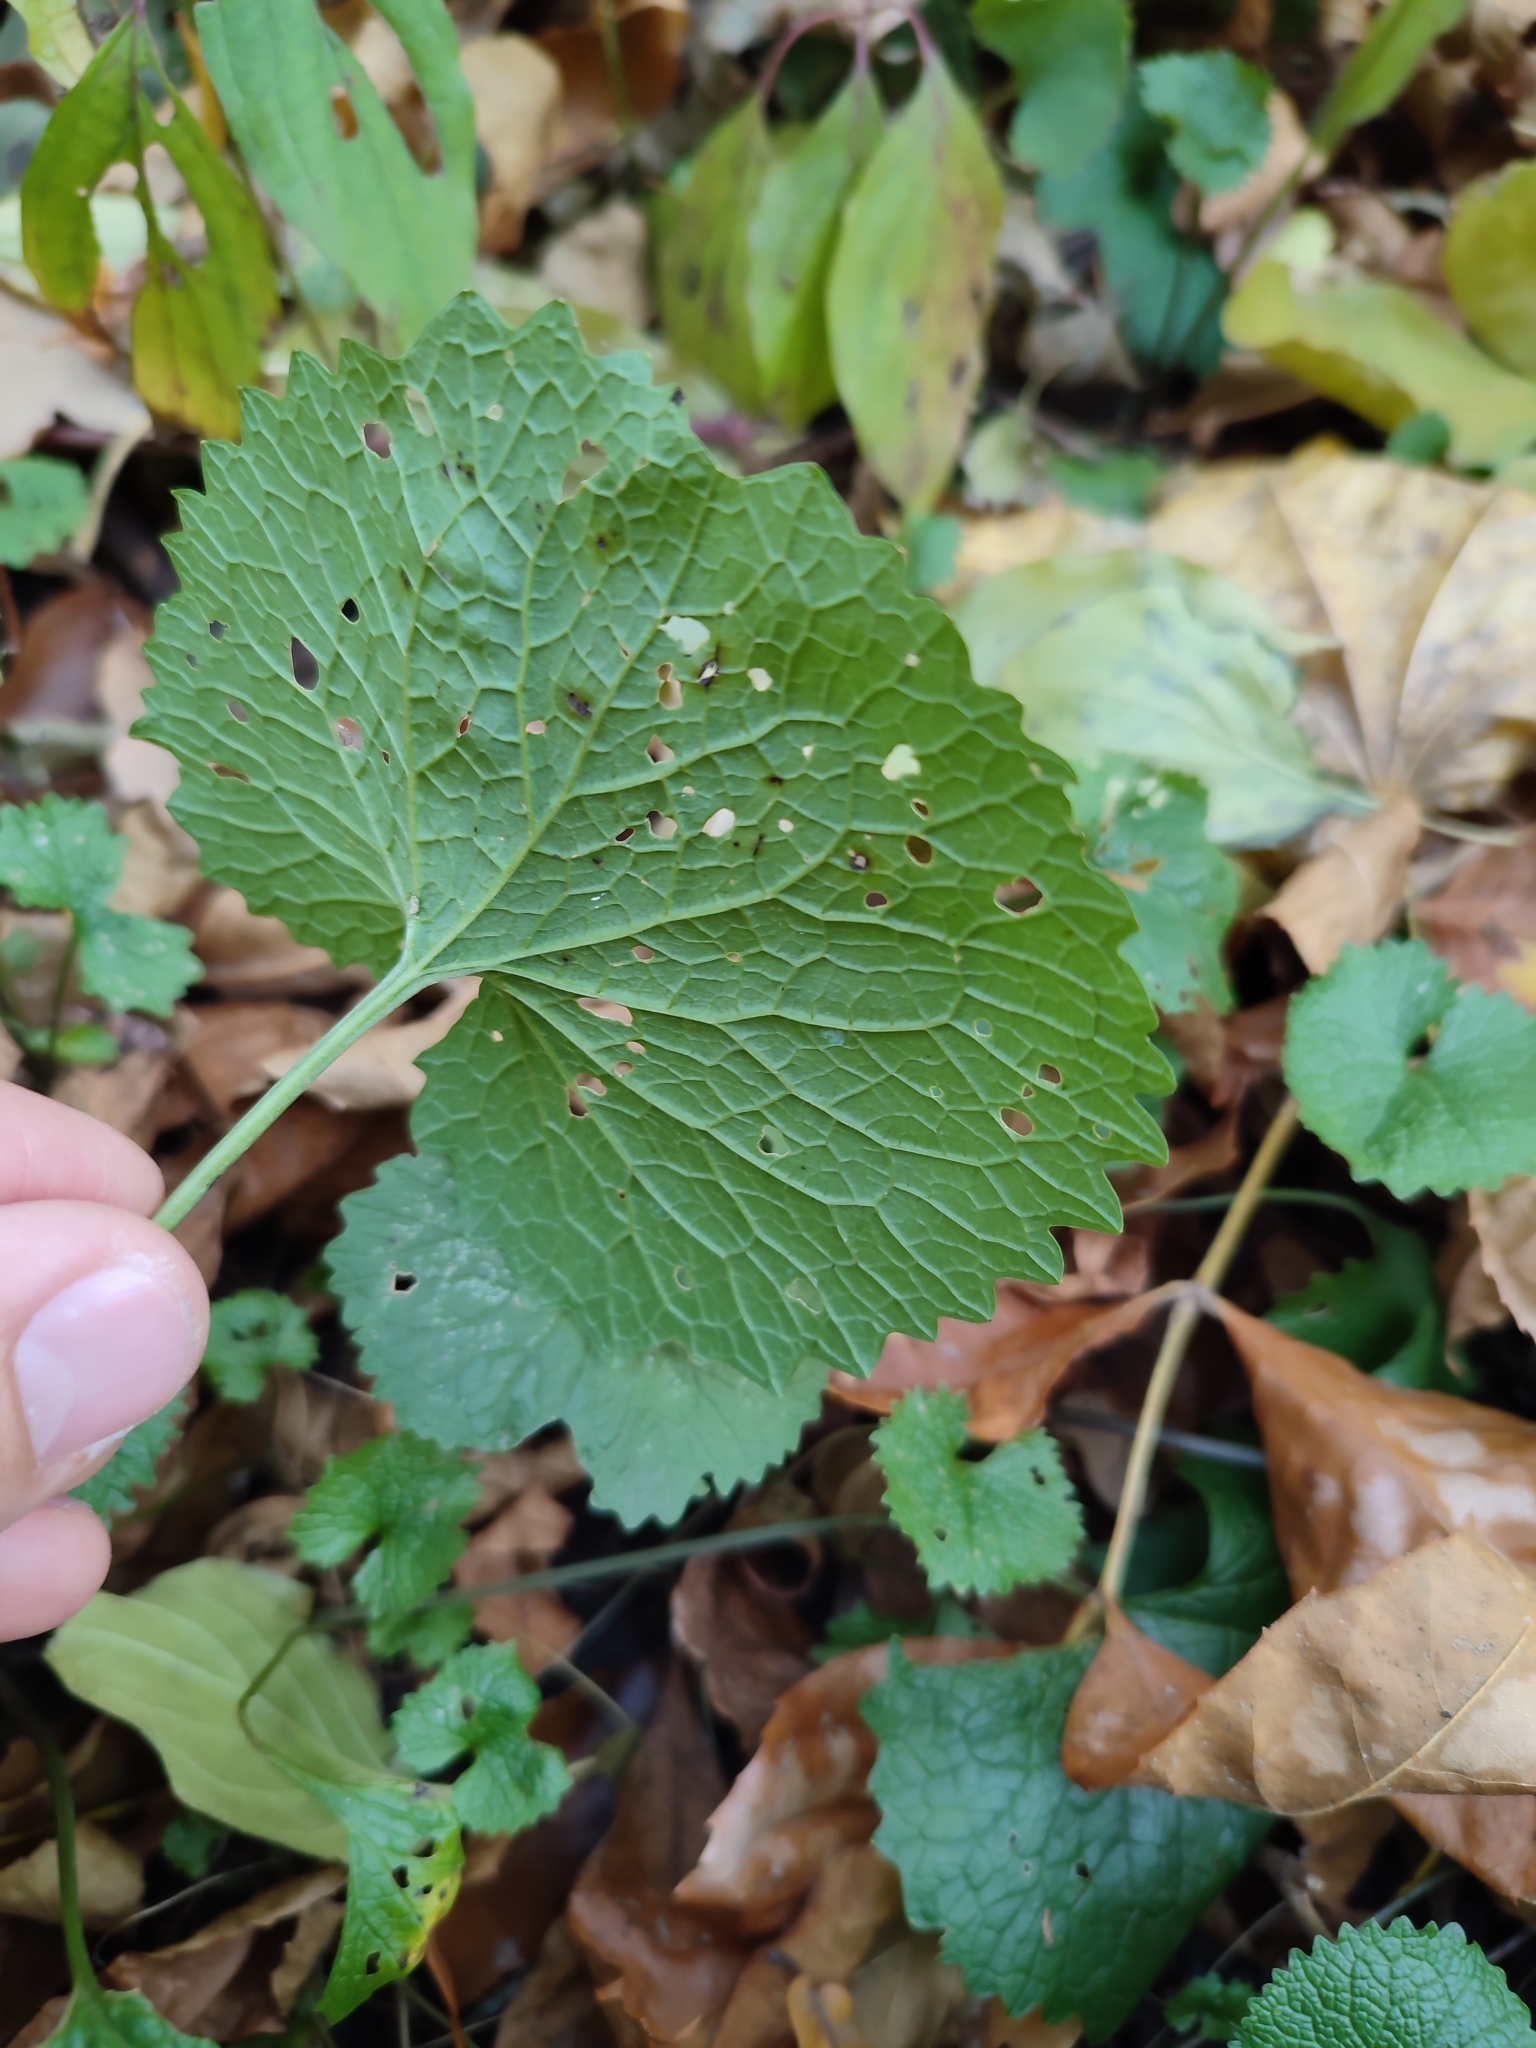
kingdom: Plantae
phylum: Tracheophyta
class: Magnoliopsida
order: Brassicales
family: Brassicaceae
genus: Alliaria
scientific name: Alliaria petiolata
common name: Garlic mustard
